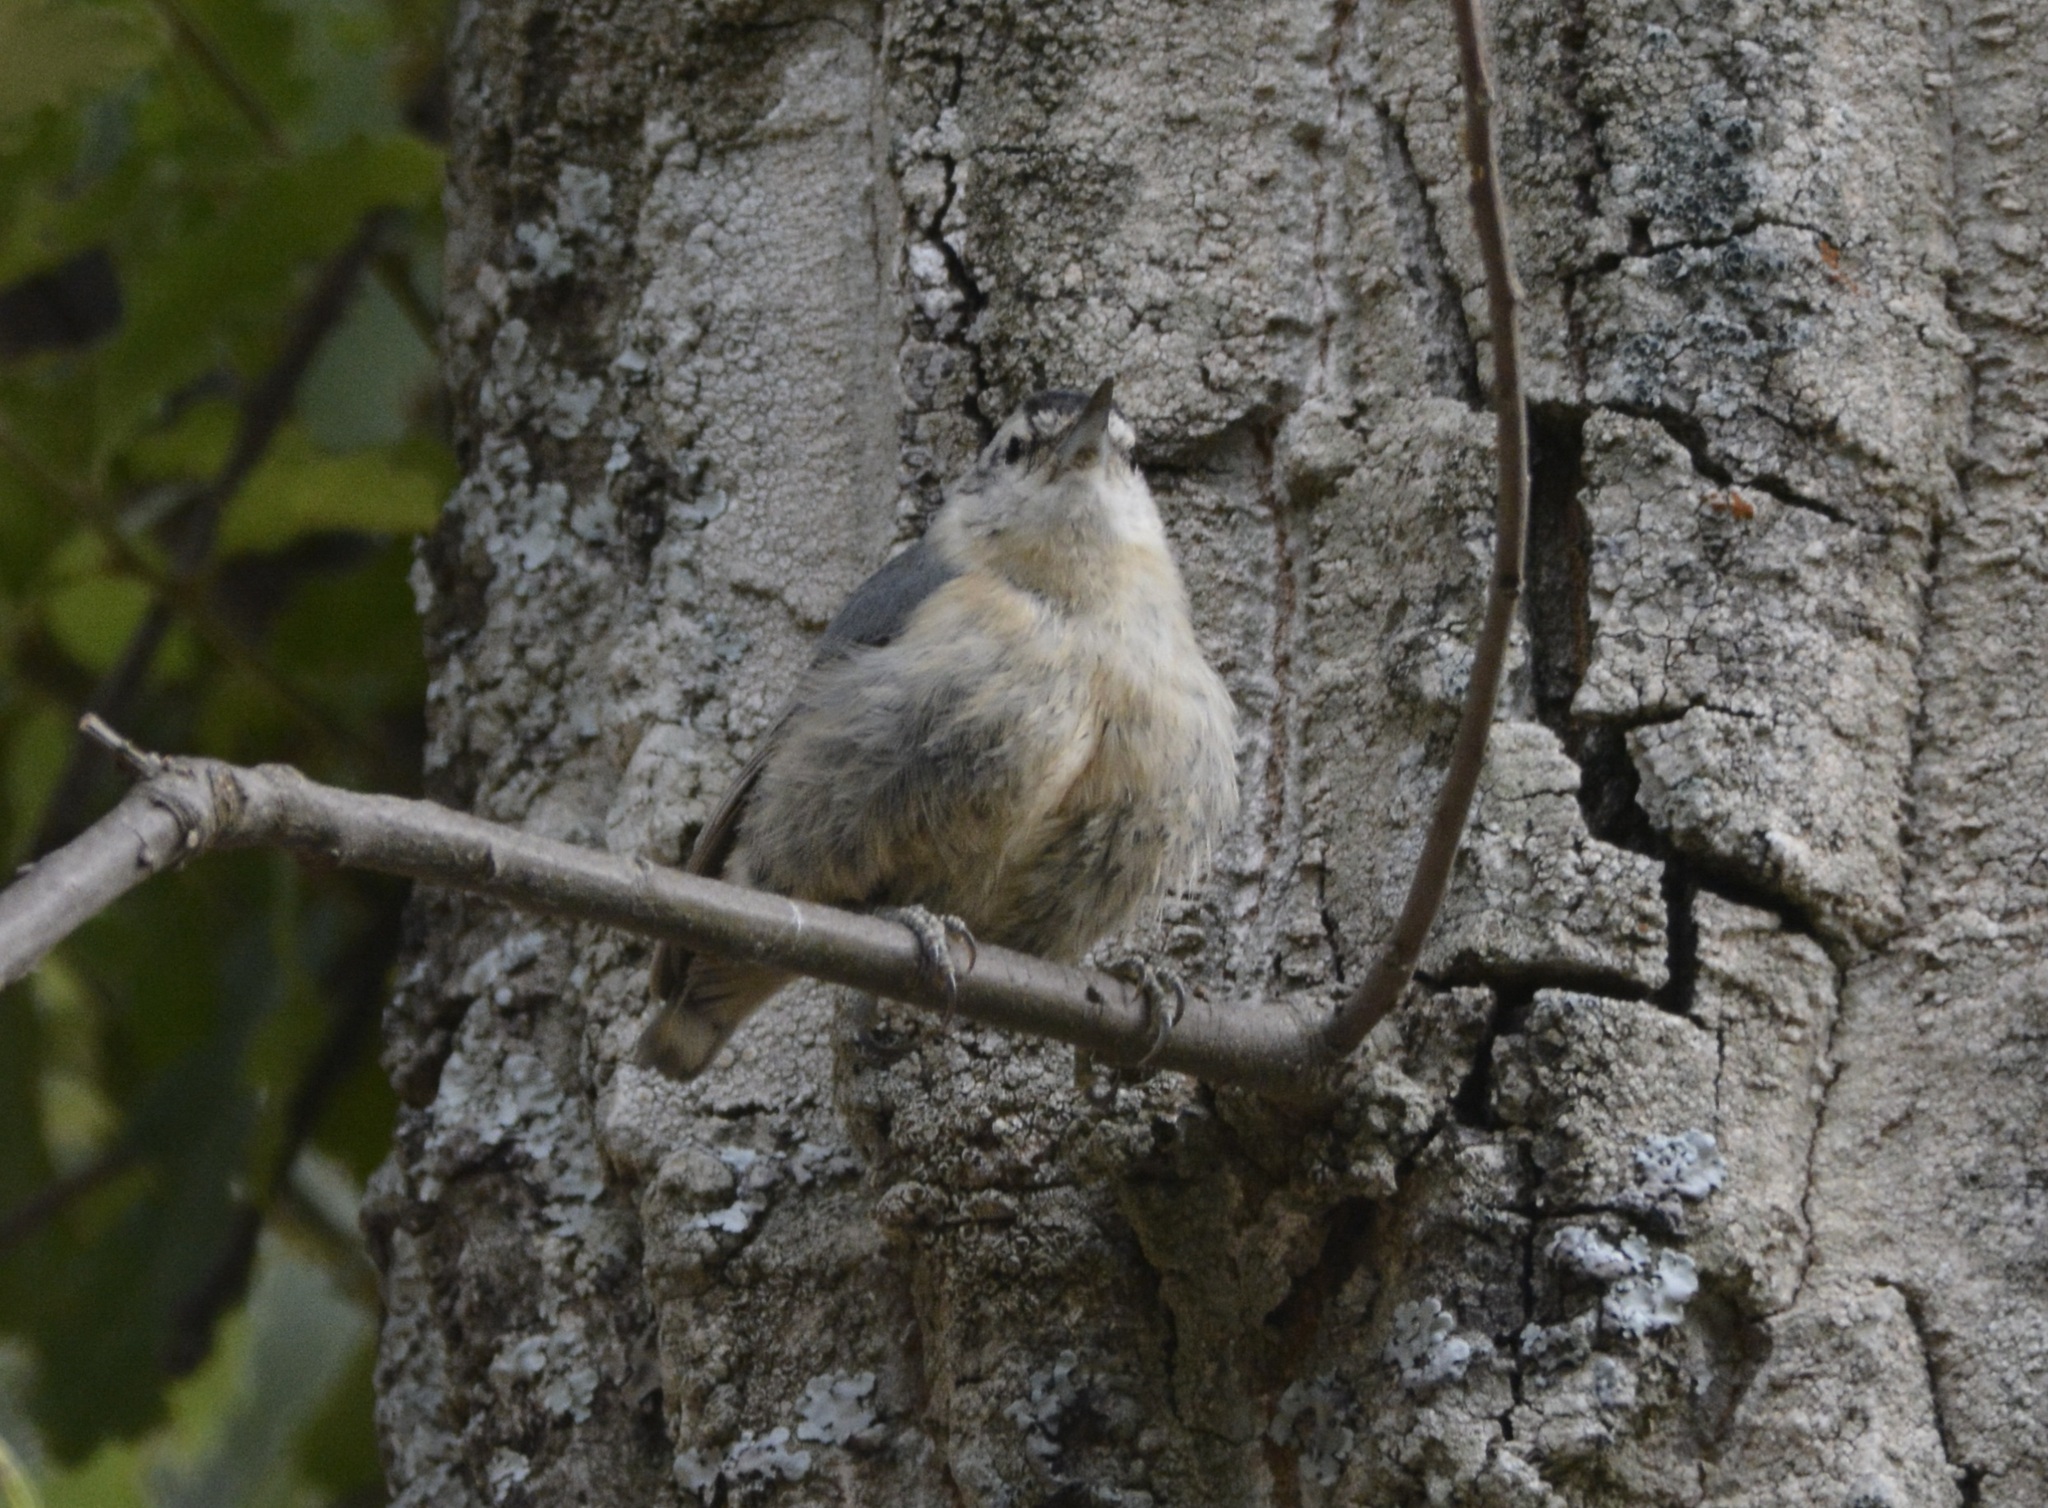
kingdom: Animalia
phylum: Chordata
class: Aves
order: Passeriformes
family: Sittidae
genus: Sitta
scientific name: Sitta ledanti
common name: Algerian nuthatch
